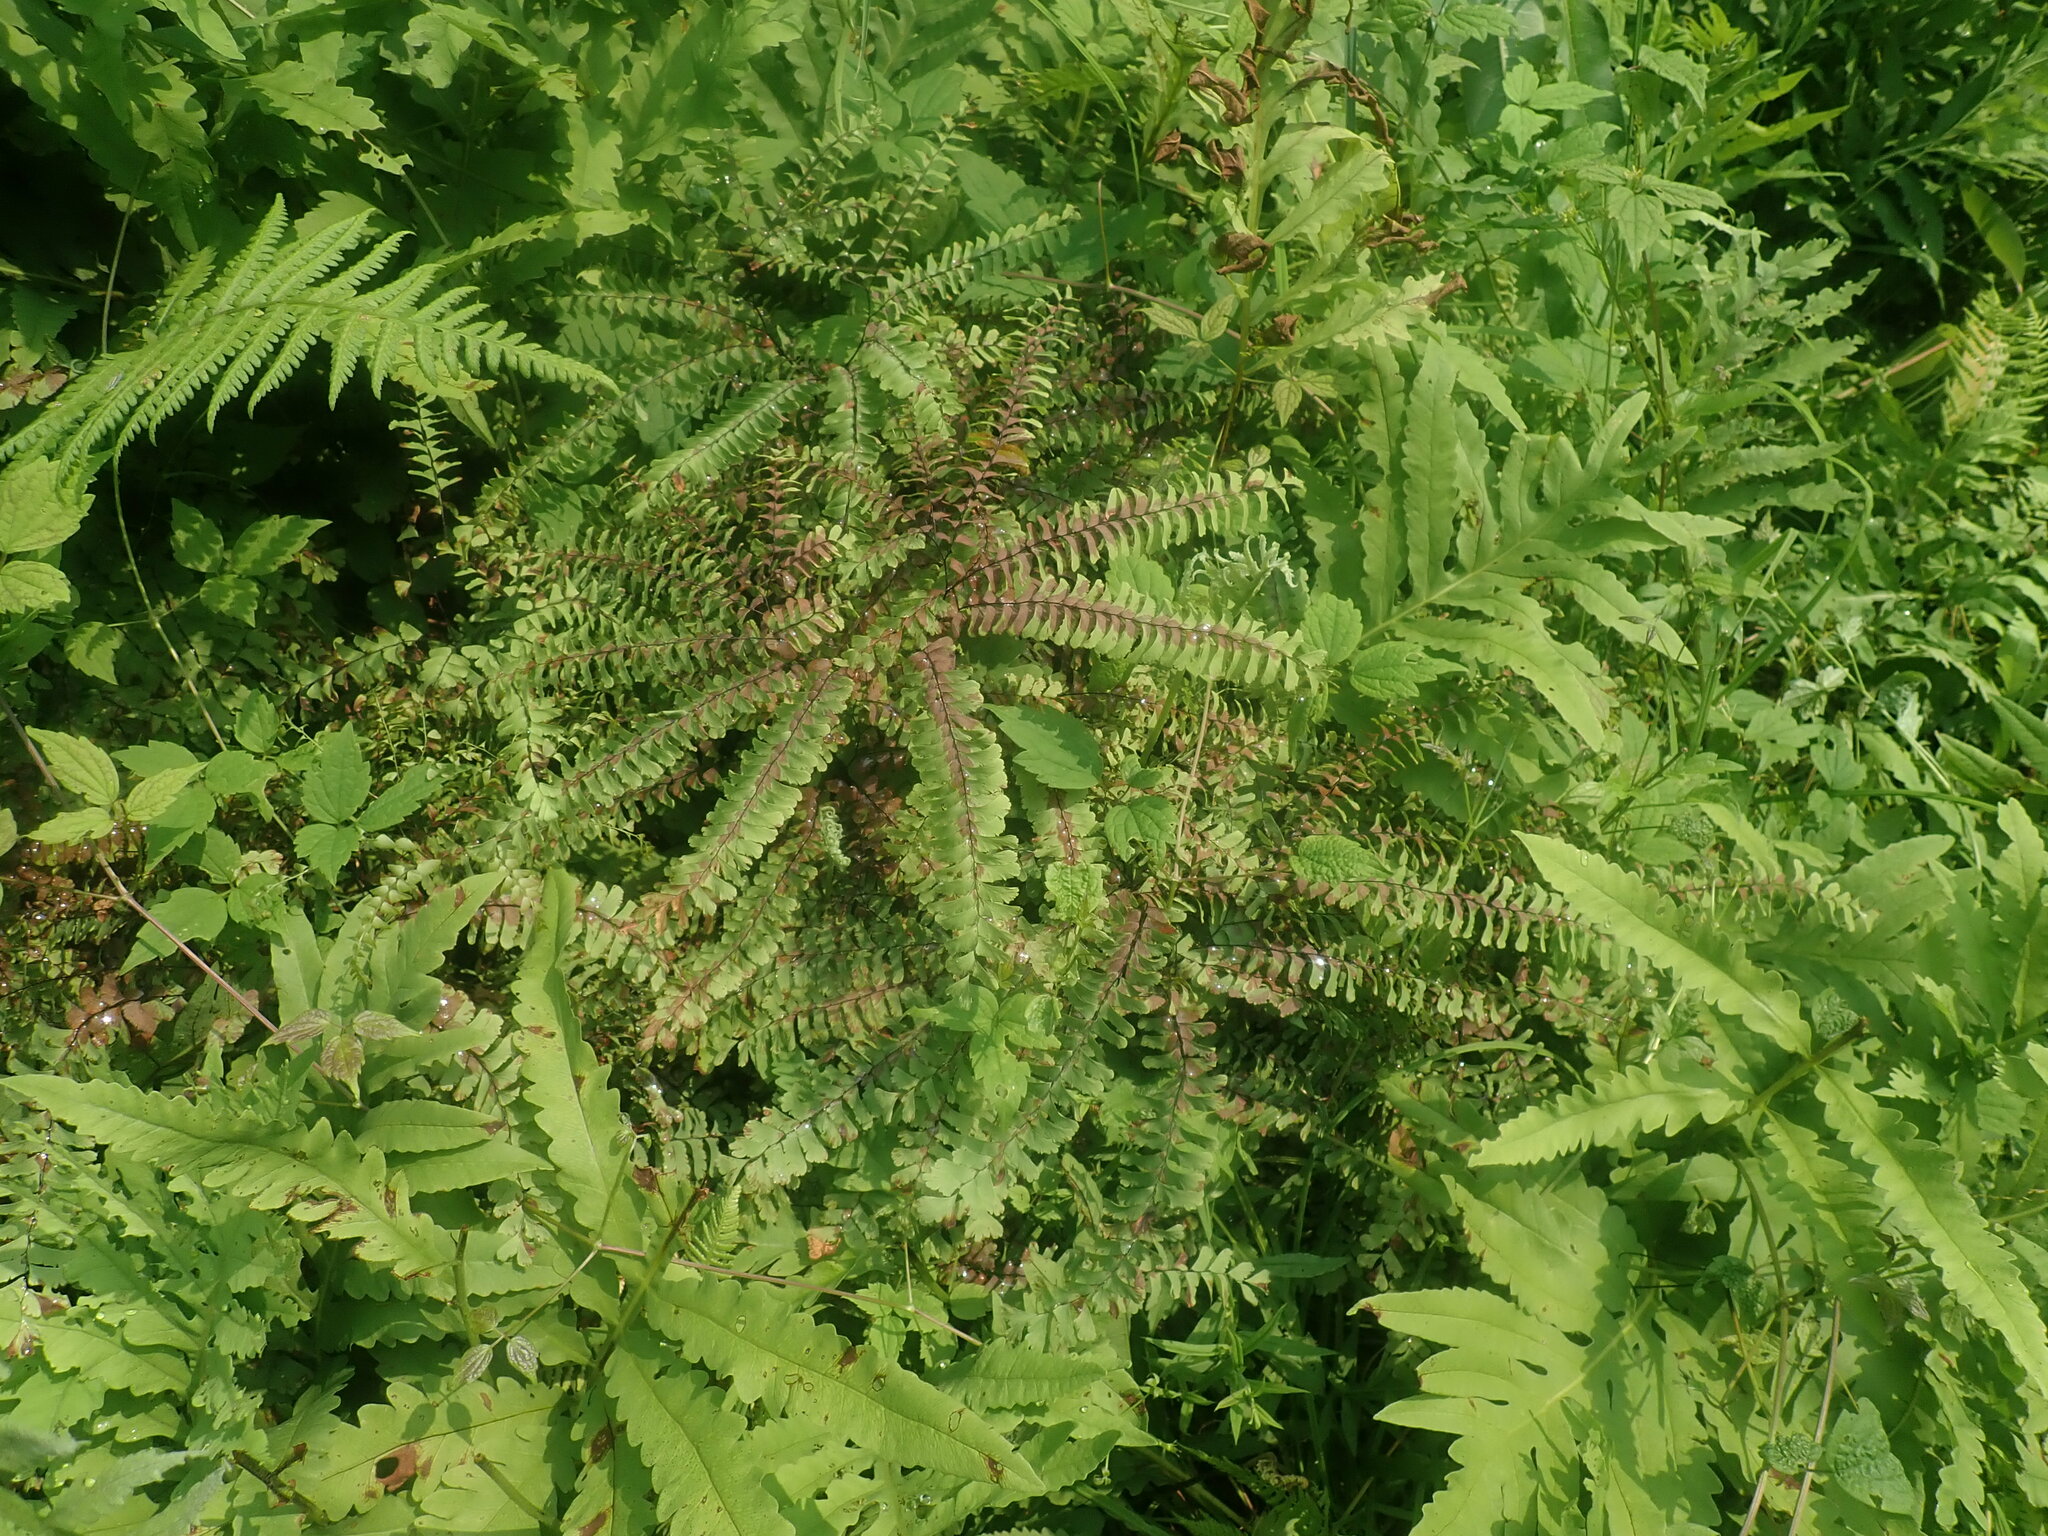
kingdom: Plantae
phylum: Tracheophyta
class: Polypodiopsida
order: Polypodiales
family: Pteridaceae
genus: Adiantum
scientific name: Adiantum pedatum
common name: Five-finger fern
